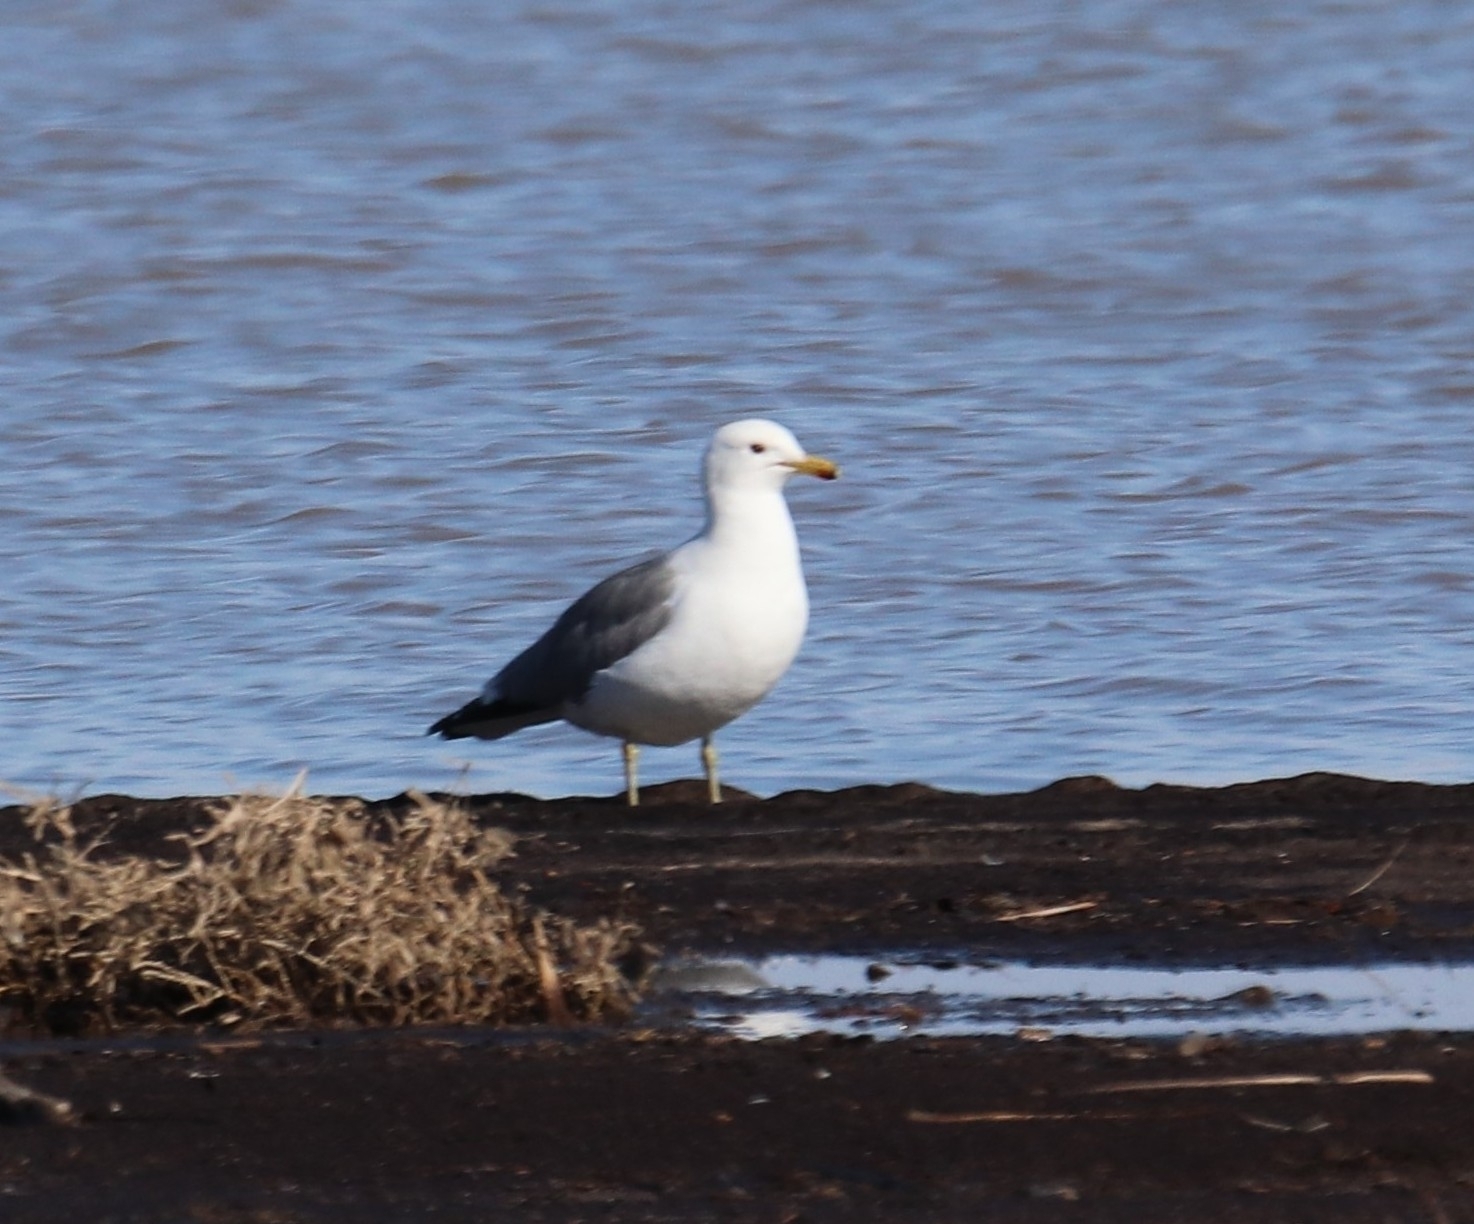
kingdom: Animalia
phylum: Chordata
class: Aves
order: Charadriiformes
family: Laridae
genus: Larus
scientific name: Larus californicus
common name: California gull
